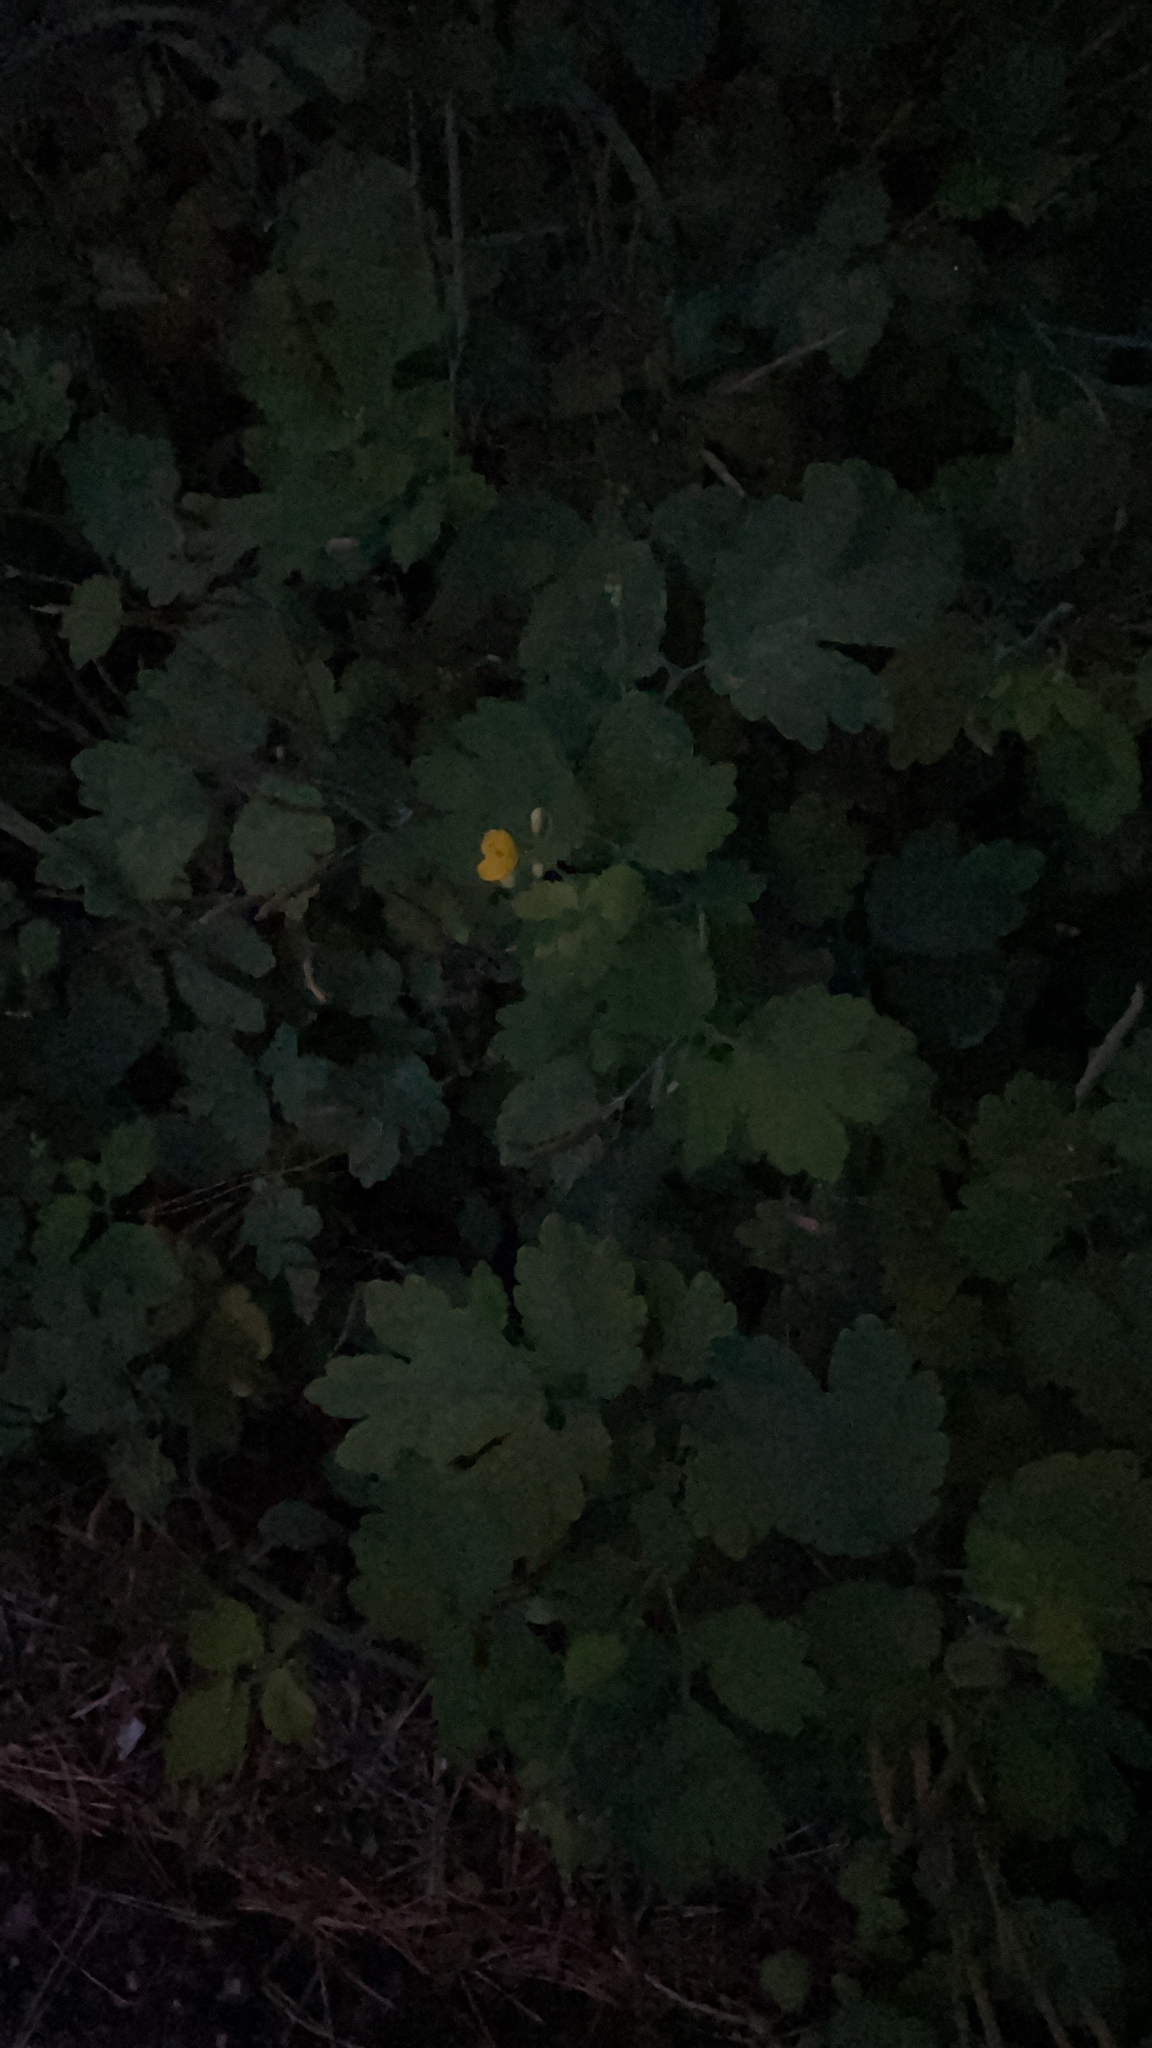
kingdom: Plantae
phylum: Tracheophyta
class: Magnoliopsida
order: Ranunculales
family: Papaveraceae
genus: Chelidonium
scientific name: Chelidonium majus
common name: Greater celandine
